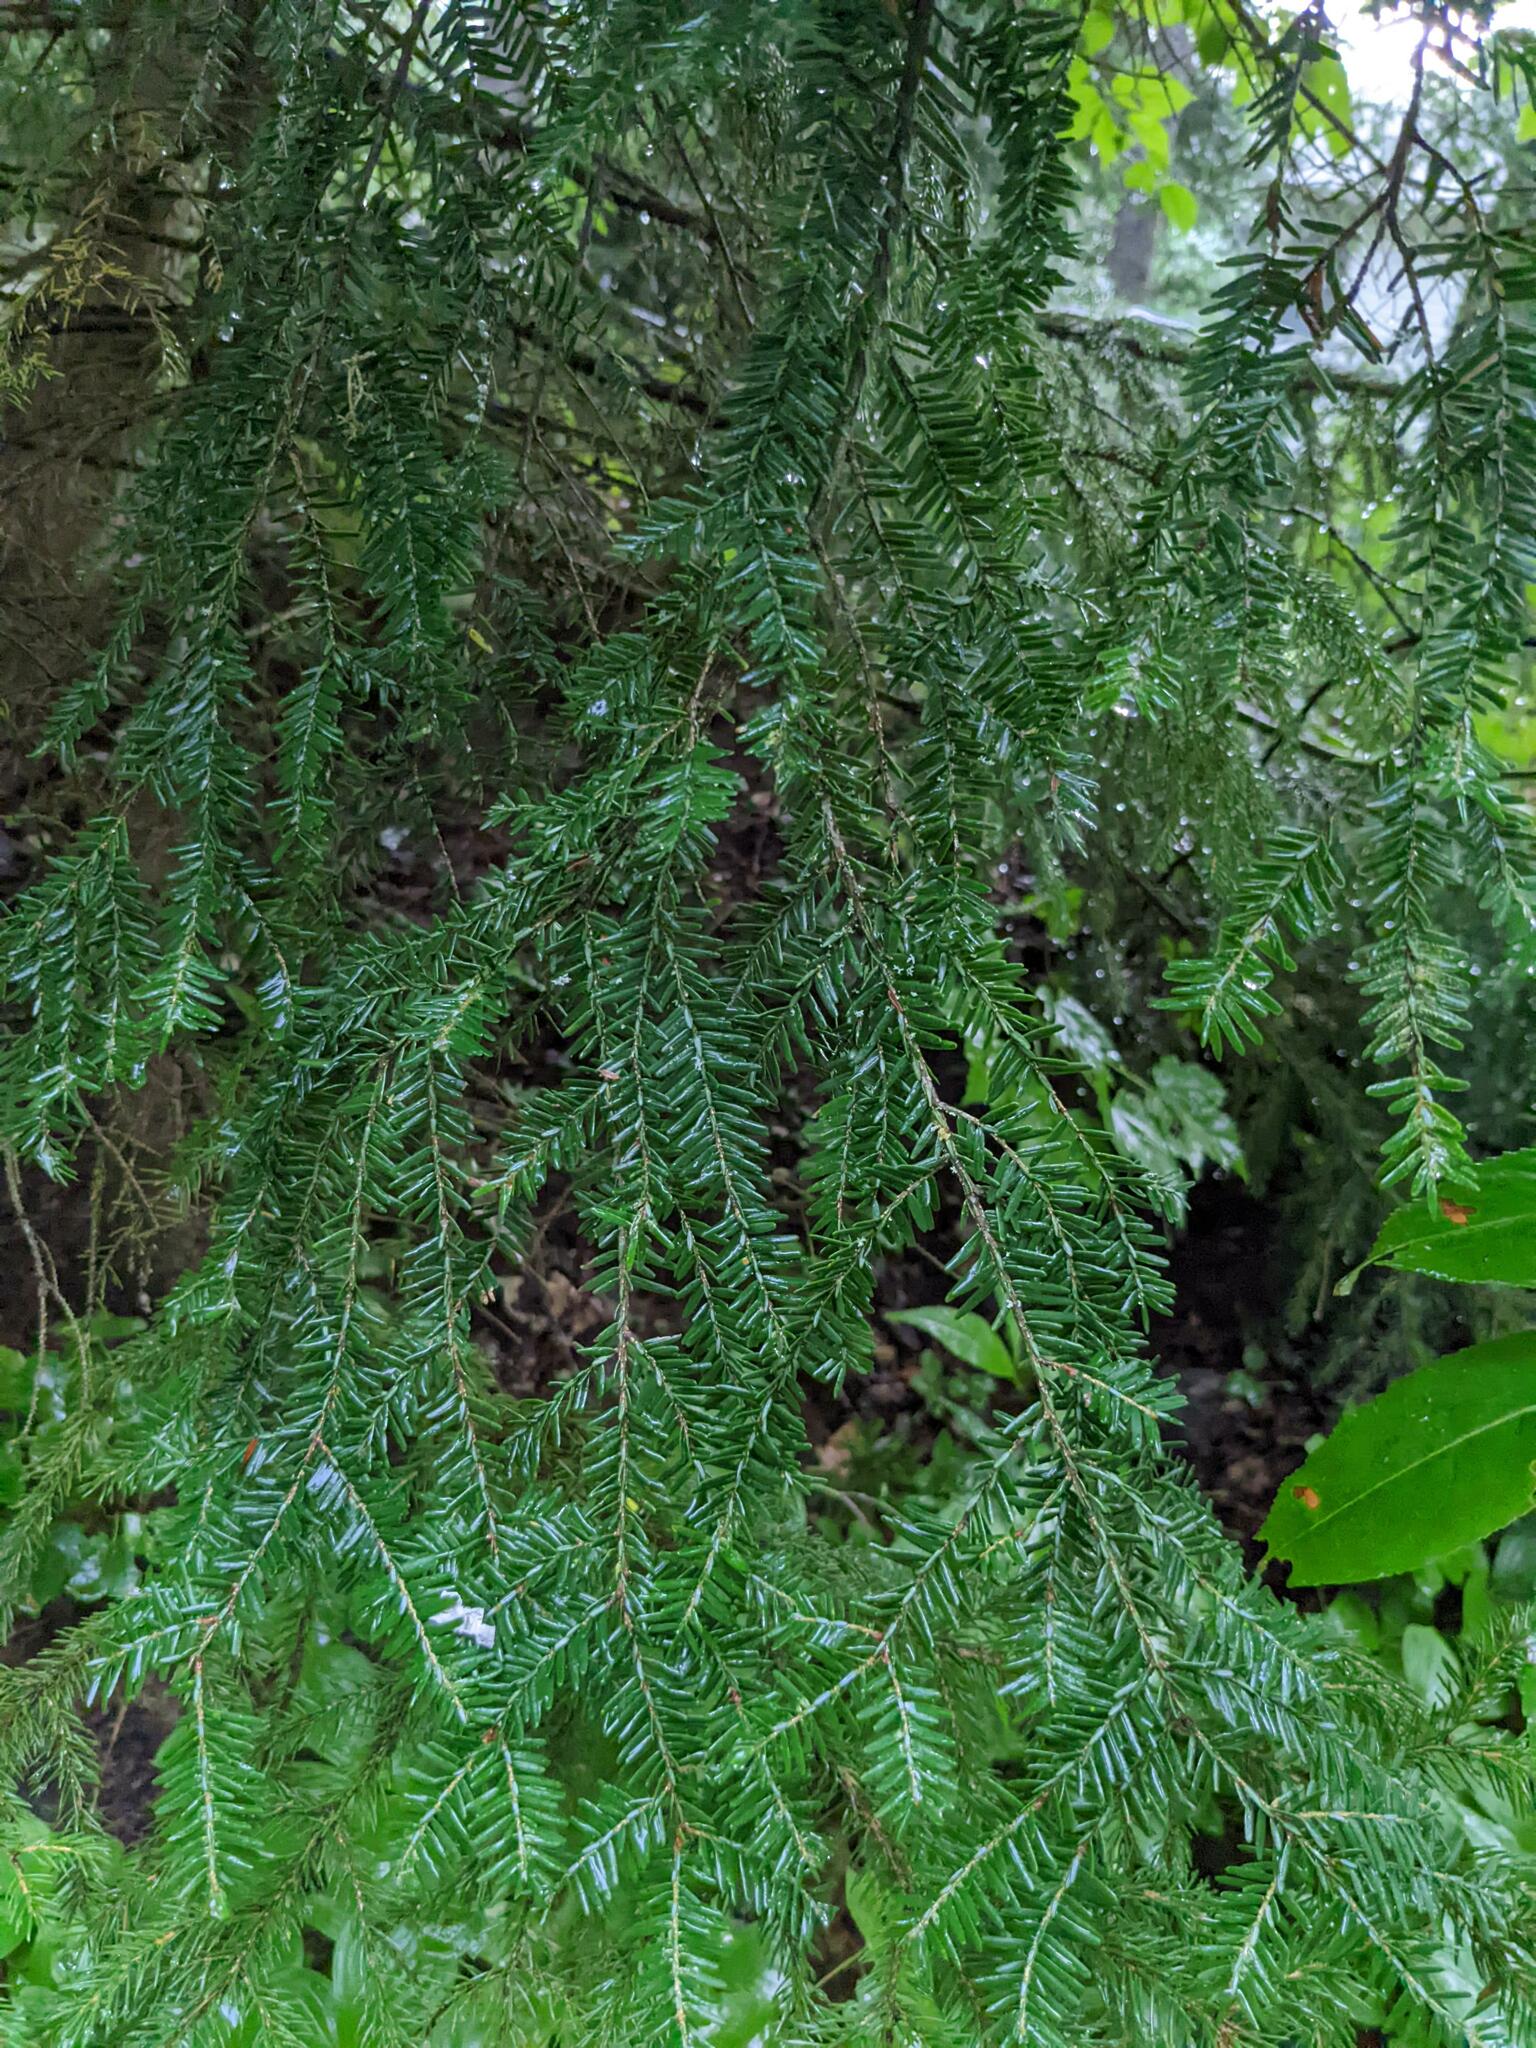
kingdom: Plantae
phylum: Tracheophyta
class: Pinopsida
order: Pinales
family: Pinaceae
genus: Tsuga
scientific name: Tsuga canadensis
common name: Eastern hemlock
